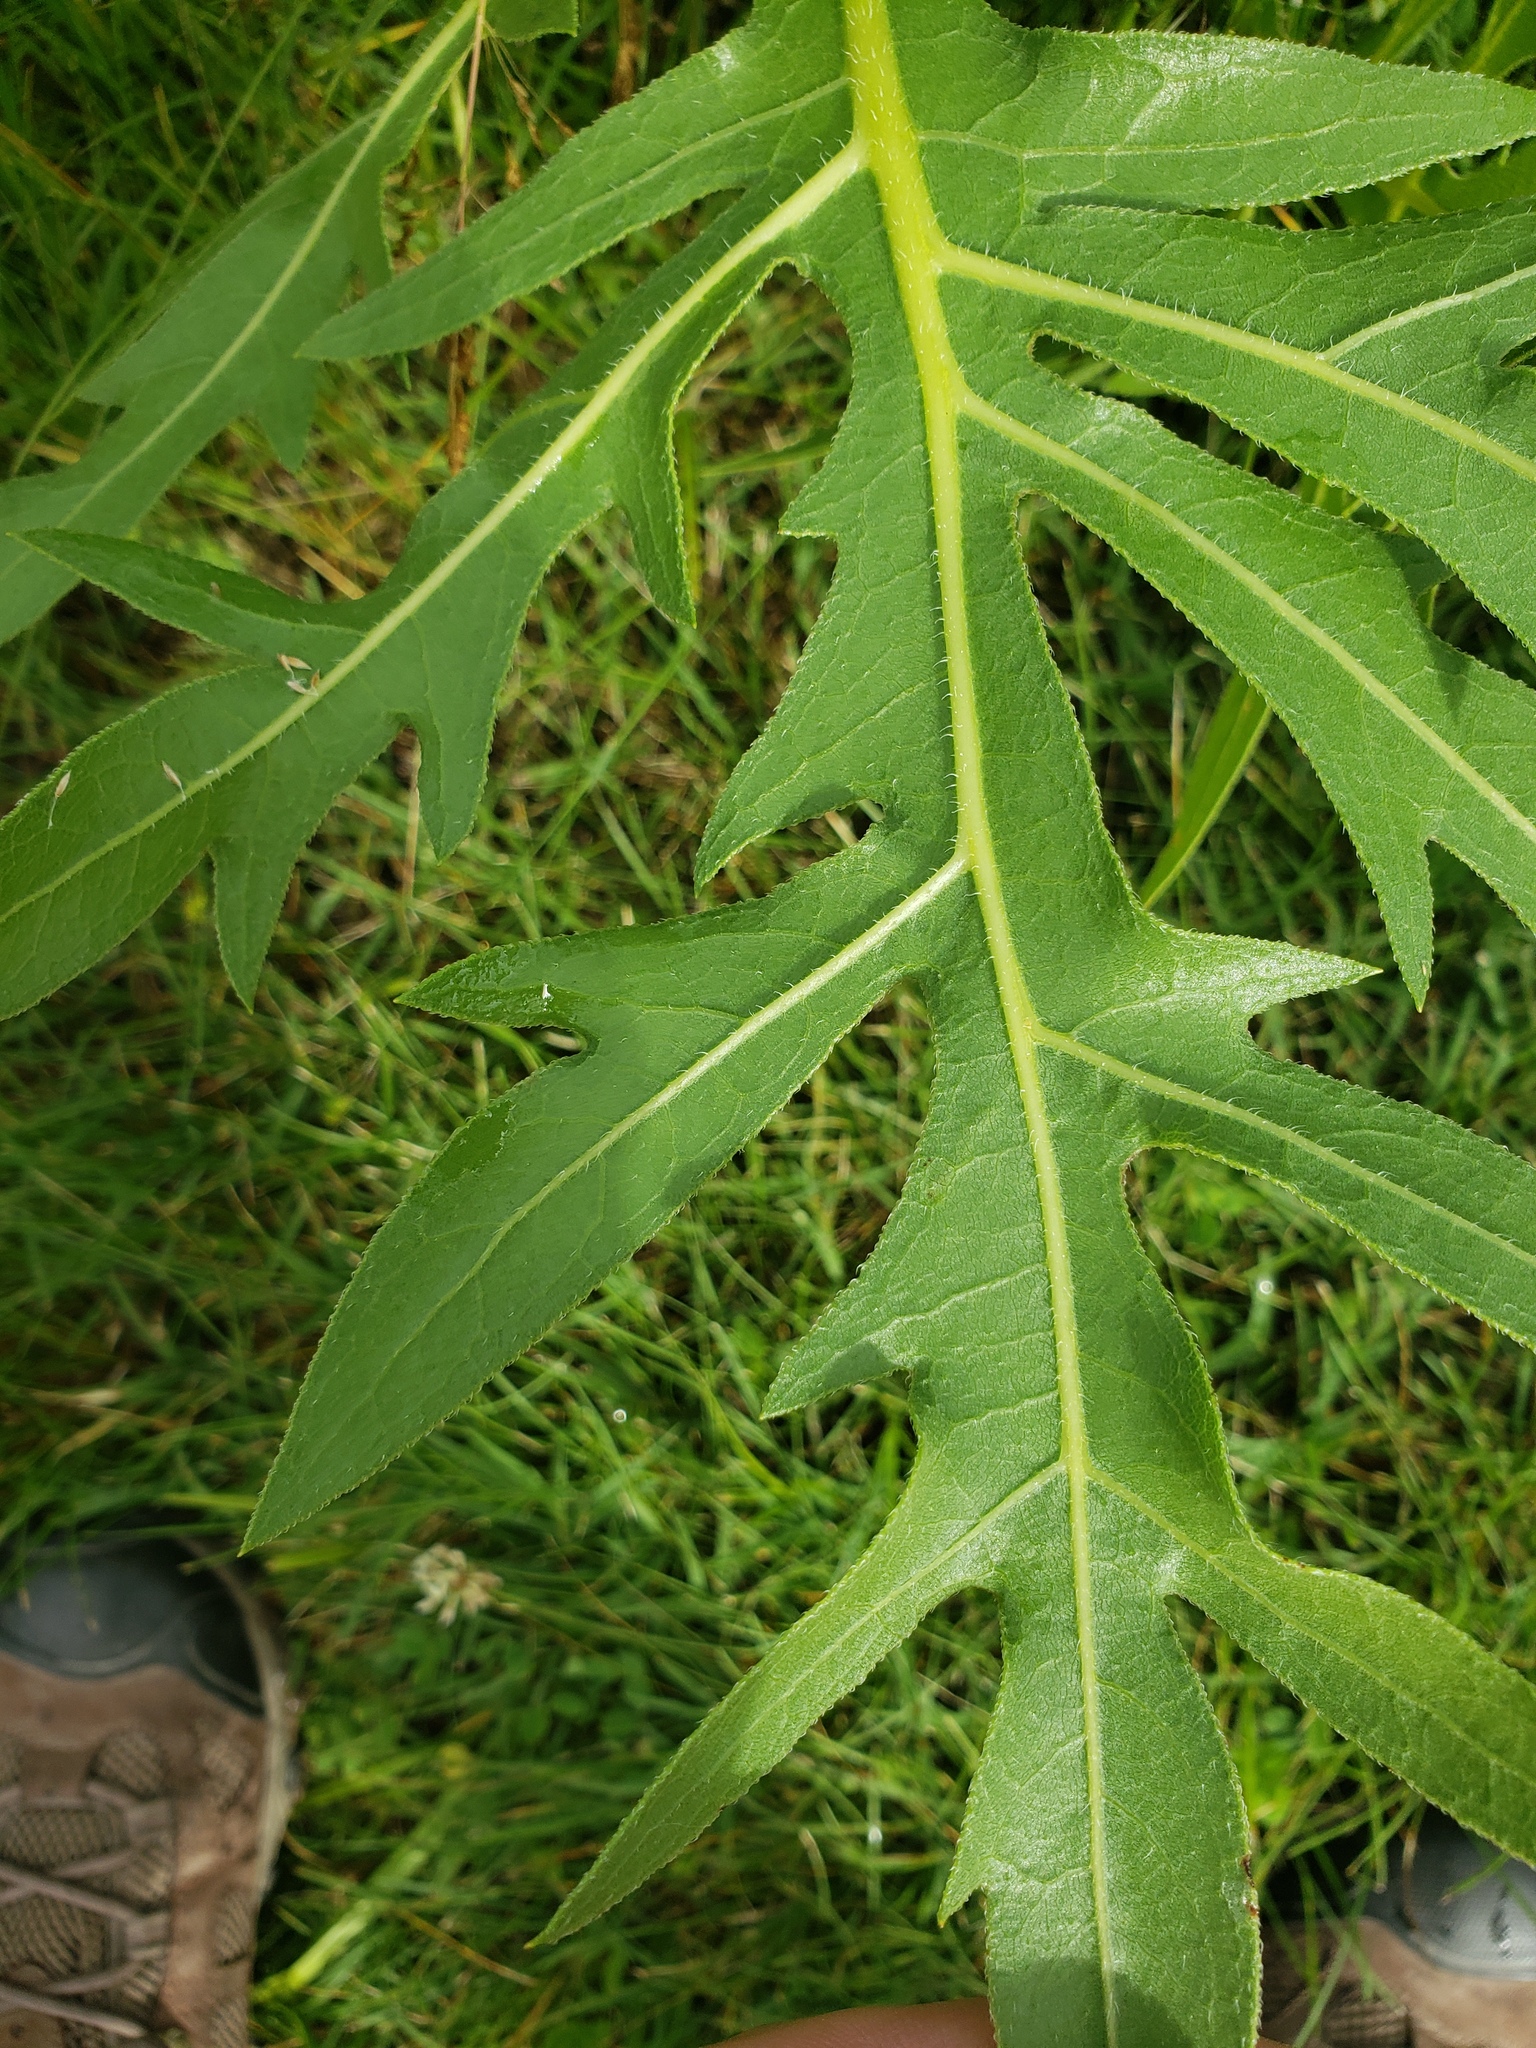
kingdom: Plantae
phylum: Tracheophyta
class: Magnoliopsida
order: Asterales
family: Asteraceae
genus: Silphium
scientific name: Silphium laciniatum
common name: Polarplant
